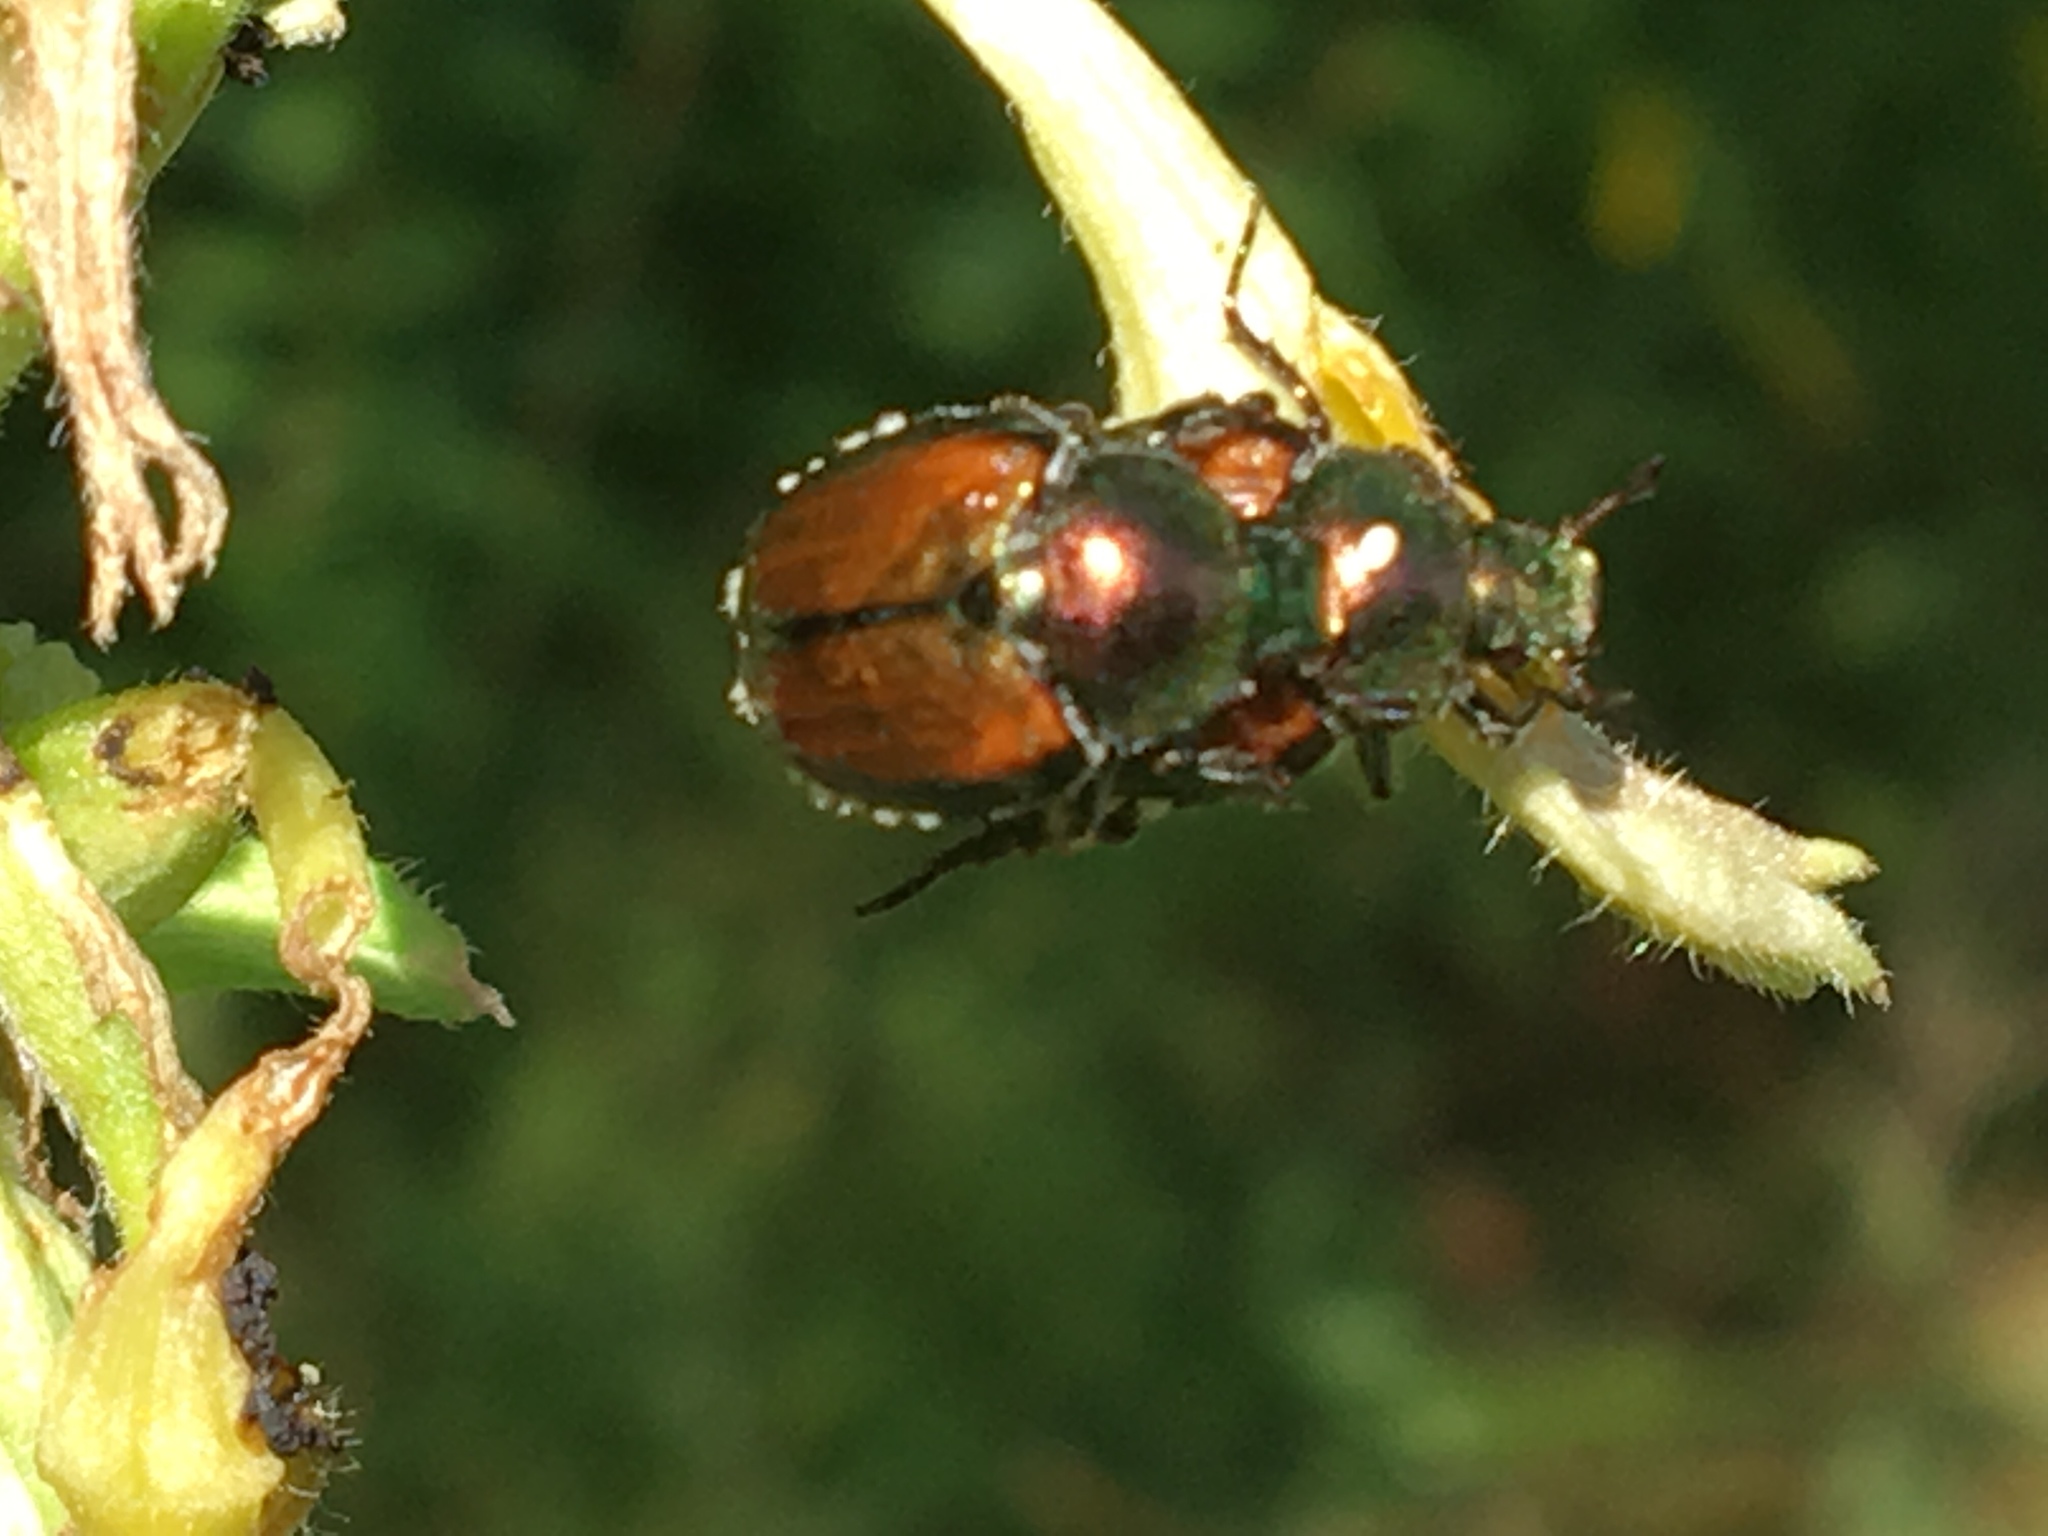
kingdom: Animalia
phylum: Arthropoda
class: Insecta
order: Coleoptera
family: Scarabaeidae
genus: Popillia
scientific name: Popillia japonica
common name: Japanese beetle
